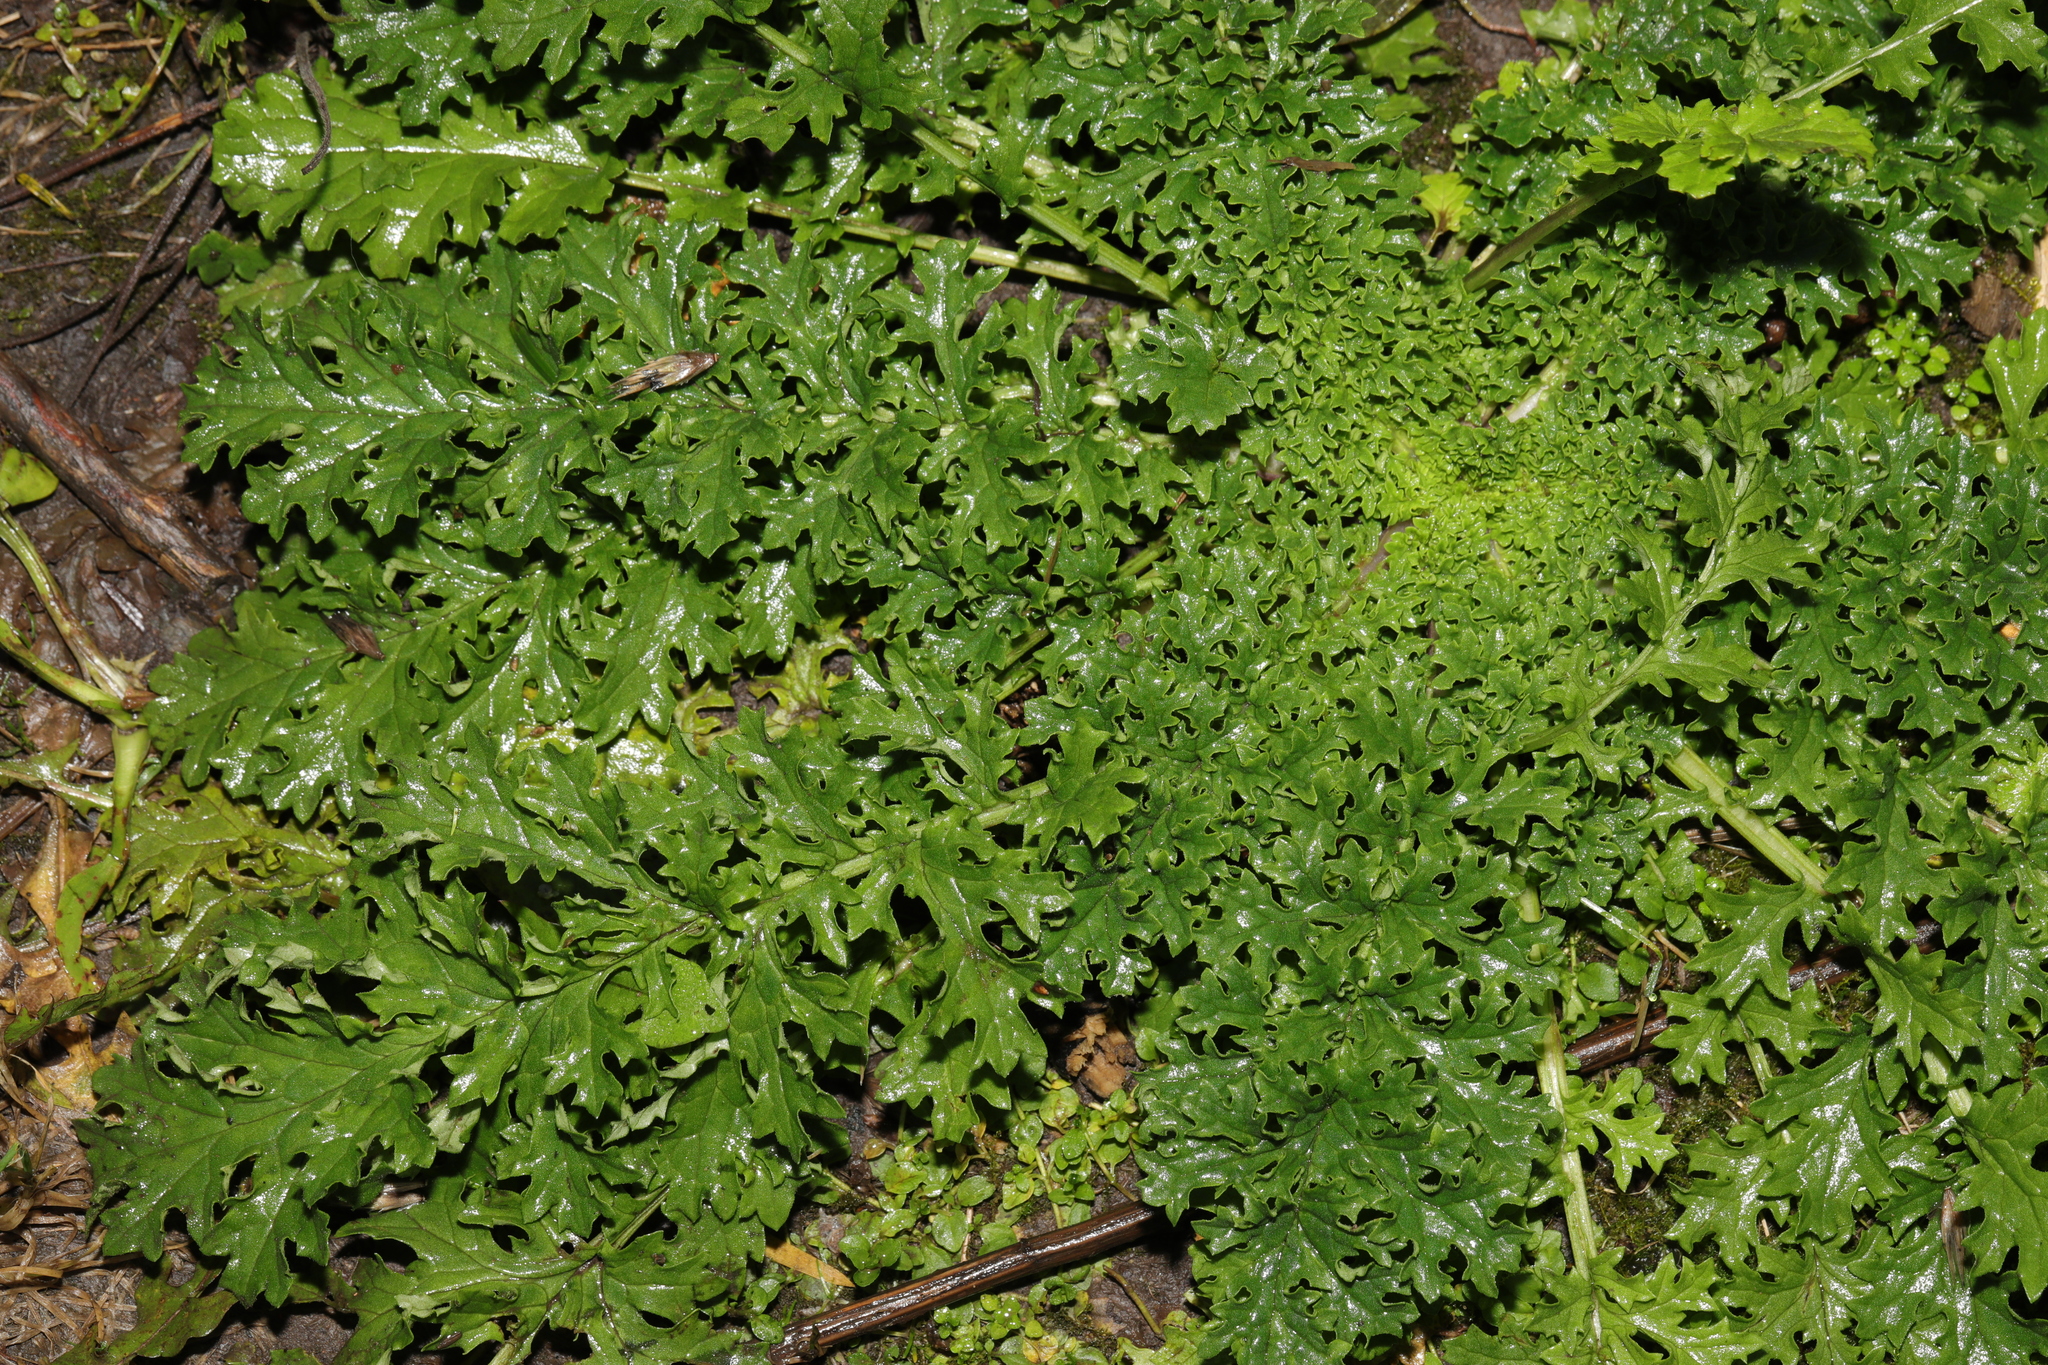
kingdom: Plantae
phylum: Tracheophyta
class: Magnoliopsida
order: Asterales
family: Asteraceae
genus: Jacobaea
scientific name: Jacobaea vulgaris
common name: Stinking willie
